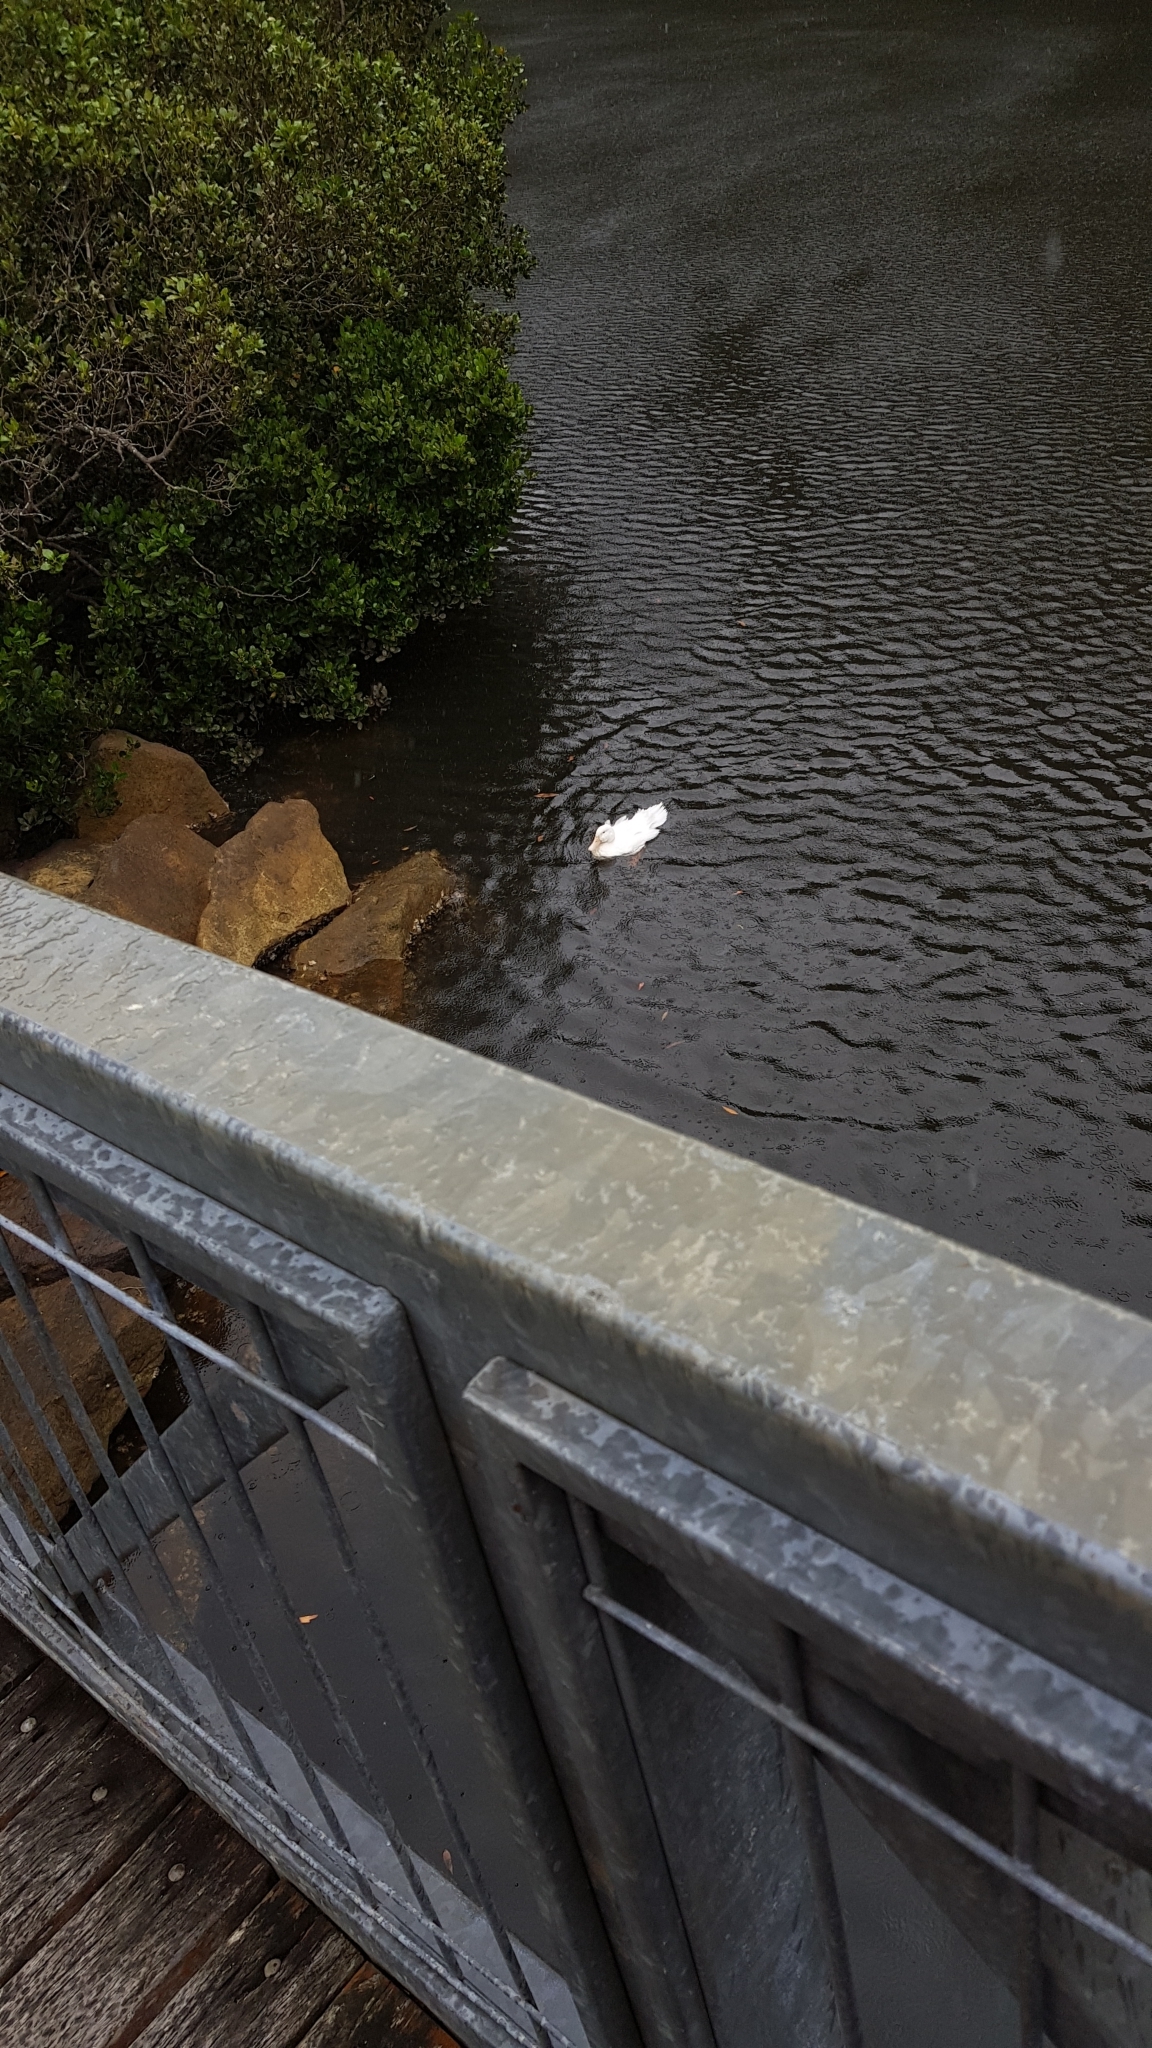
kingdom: Animalia
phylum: Chordata
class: Aves
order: Anseriformes
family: Anatidae
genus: Anas
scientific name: Anas platyrhynchos
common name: Mallard
